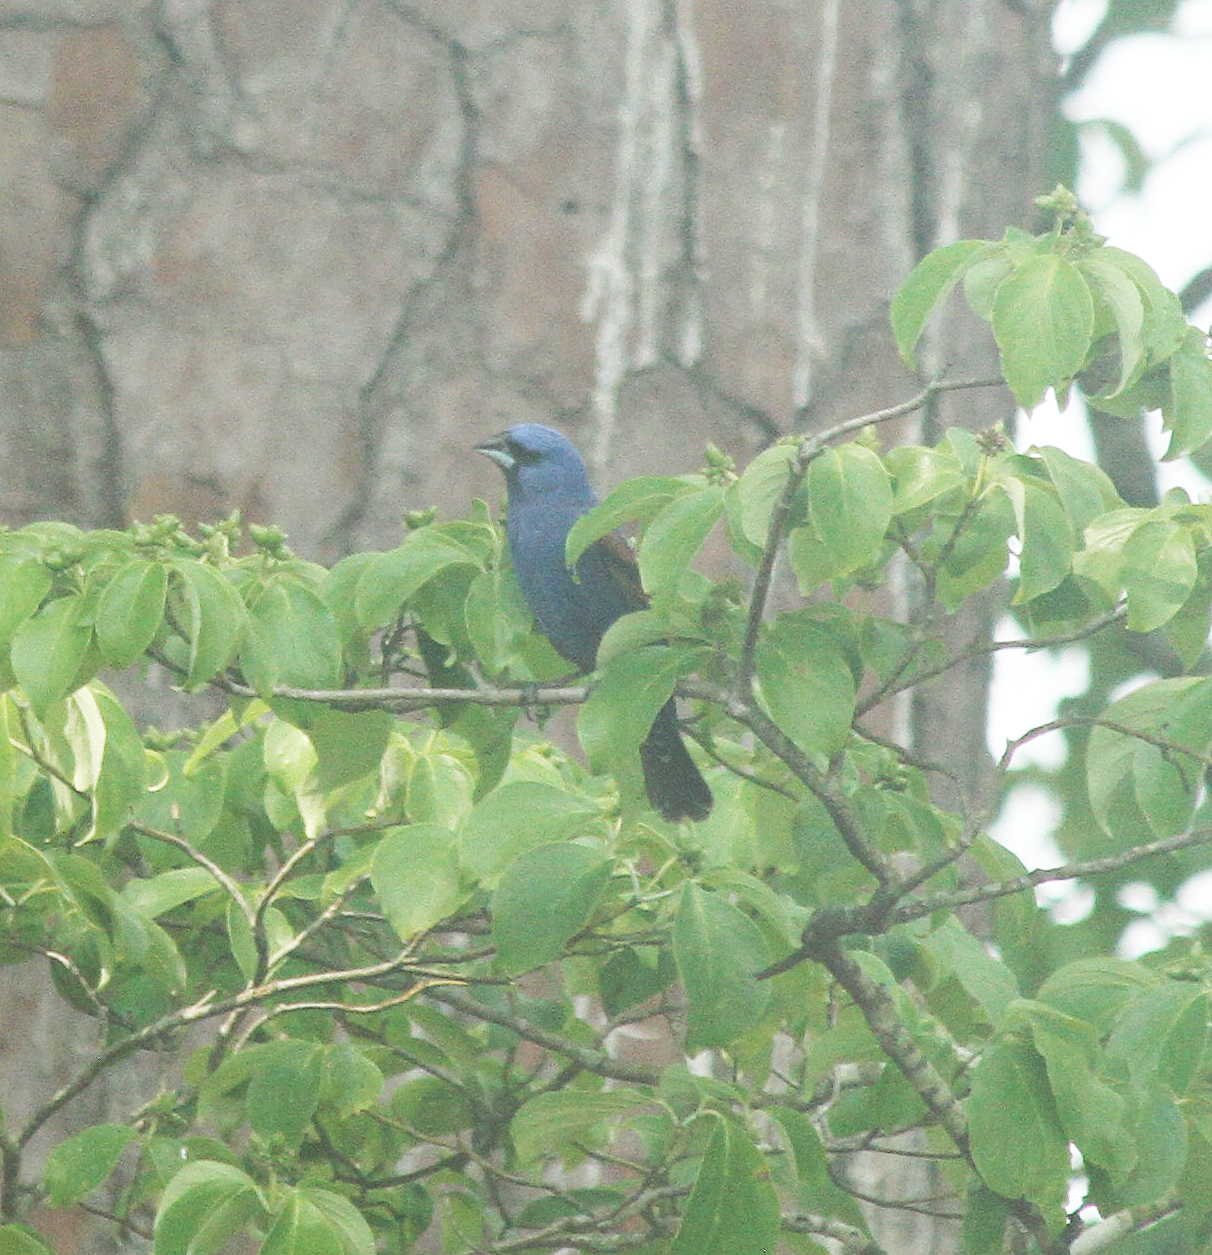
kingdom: Animalia
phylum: Chordata
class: Aves
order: Passeriformes
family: Cardinalidae
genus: Passerina
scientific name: Passerina caerulea
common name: Blue grosbeak
